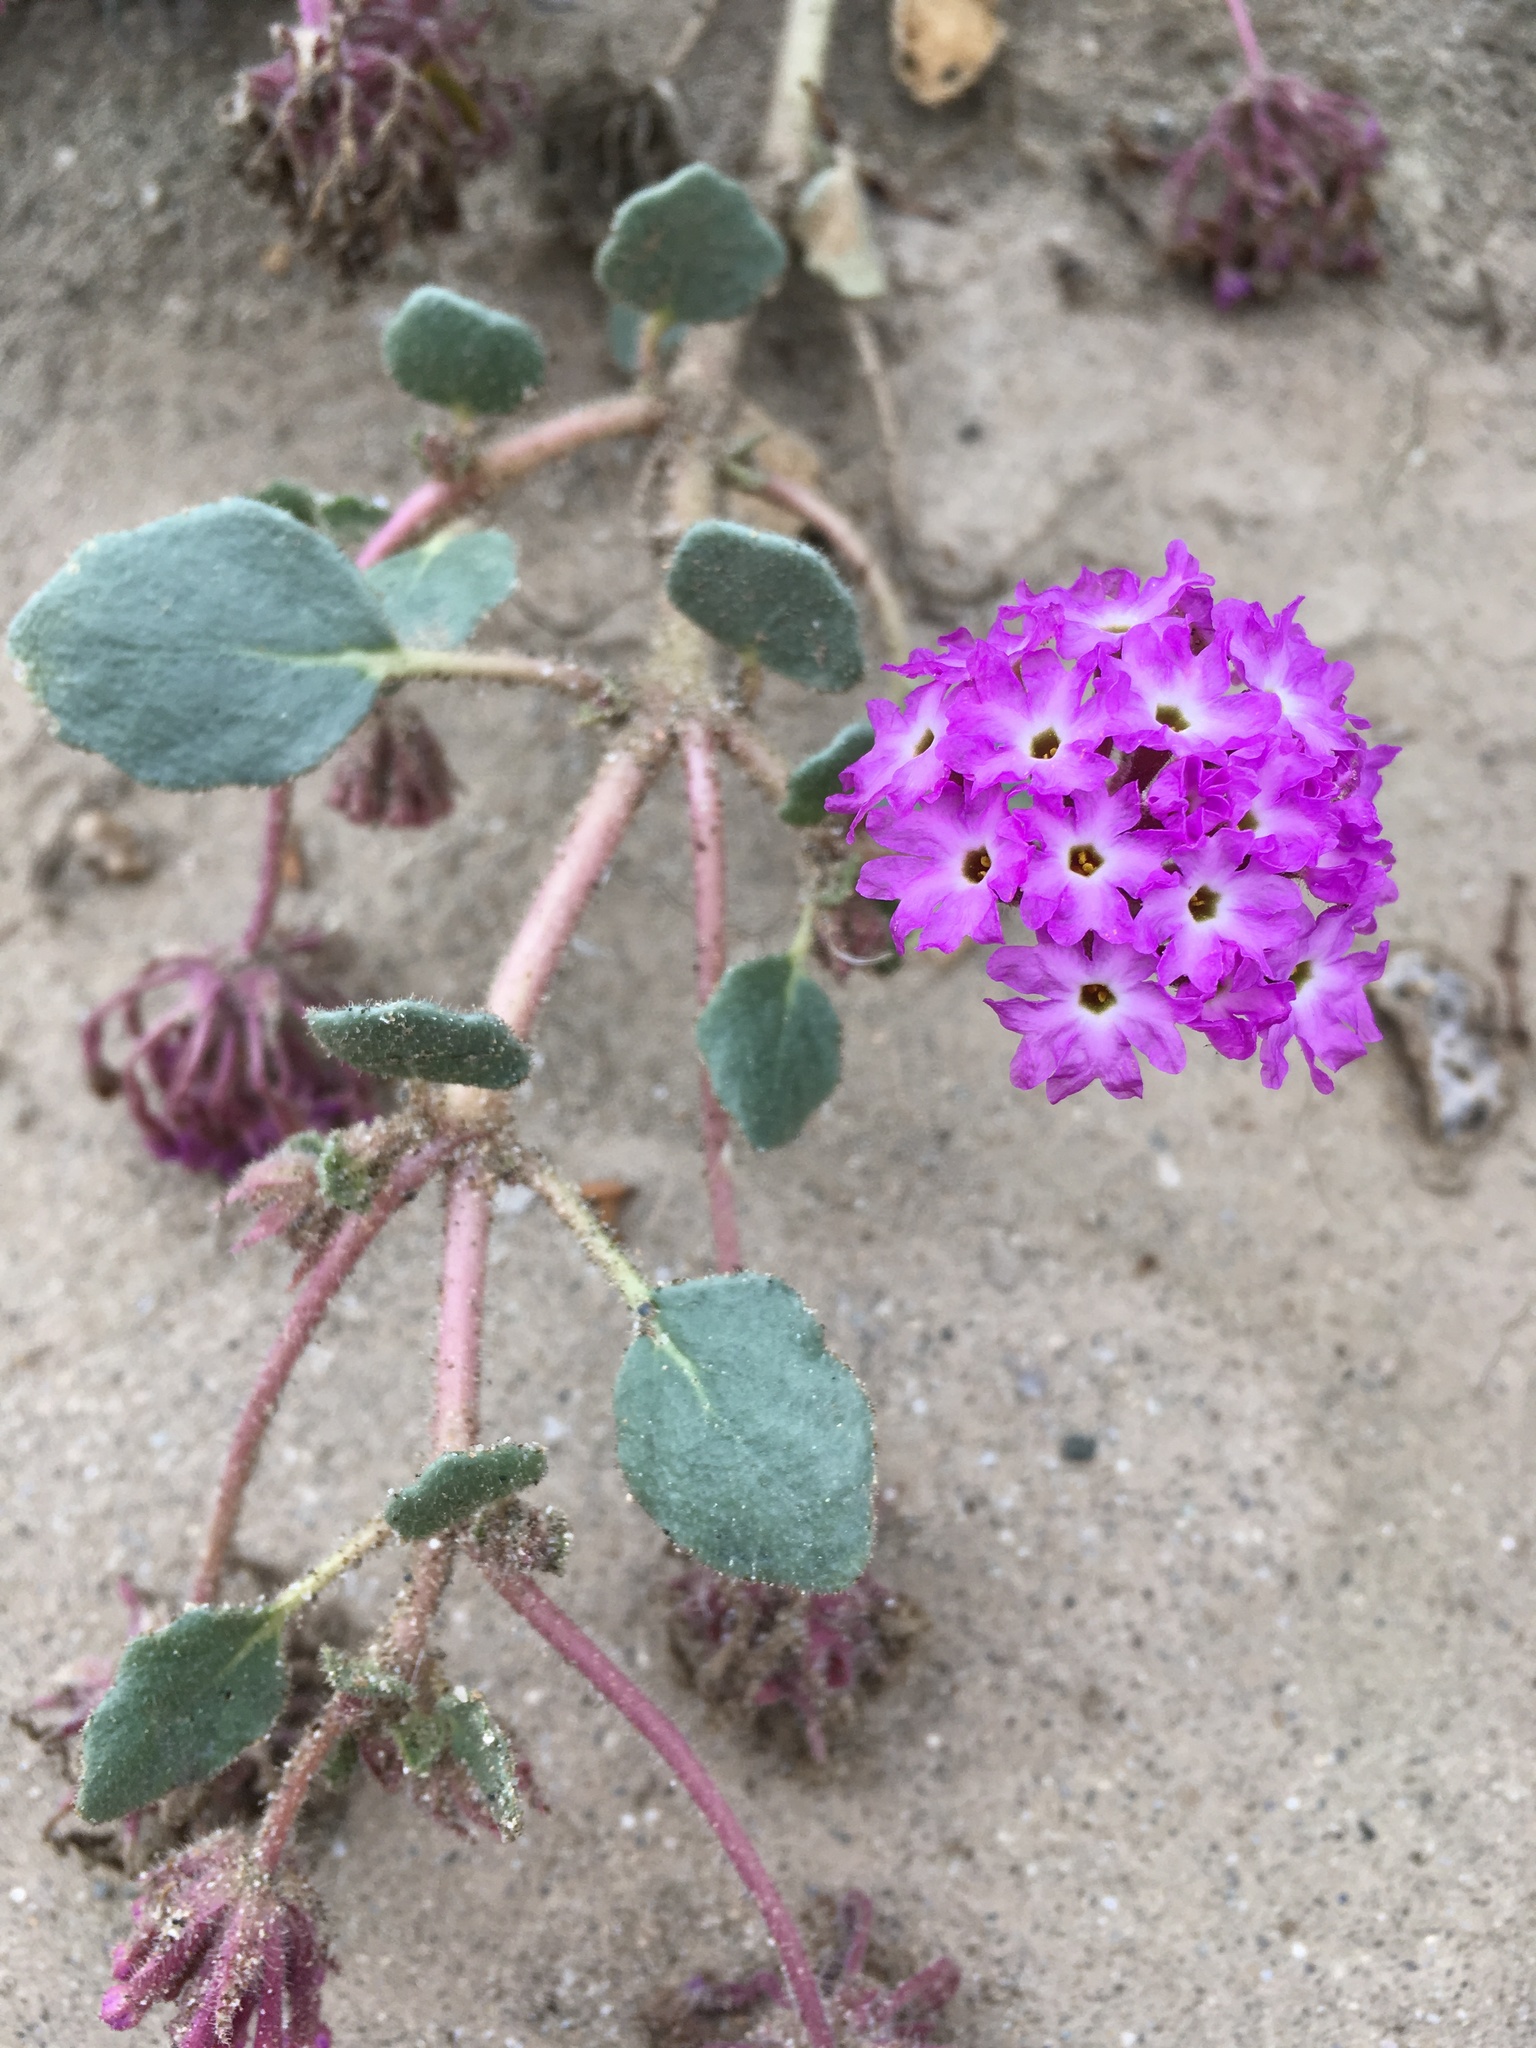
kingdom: Plantae
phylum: Tracheophyta
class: Magnoliopsida
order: Caryophyllales
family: Nyctaginaceae
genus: Abronia
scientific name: Abronia villosa
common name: Desert sand-verbena
